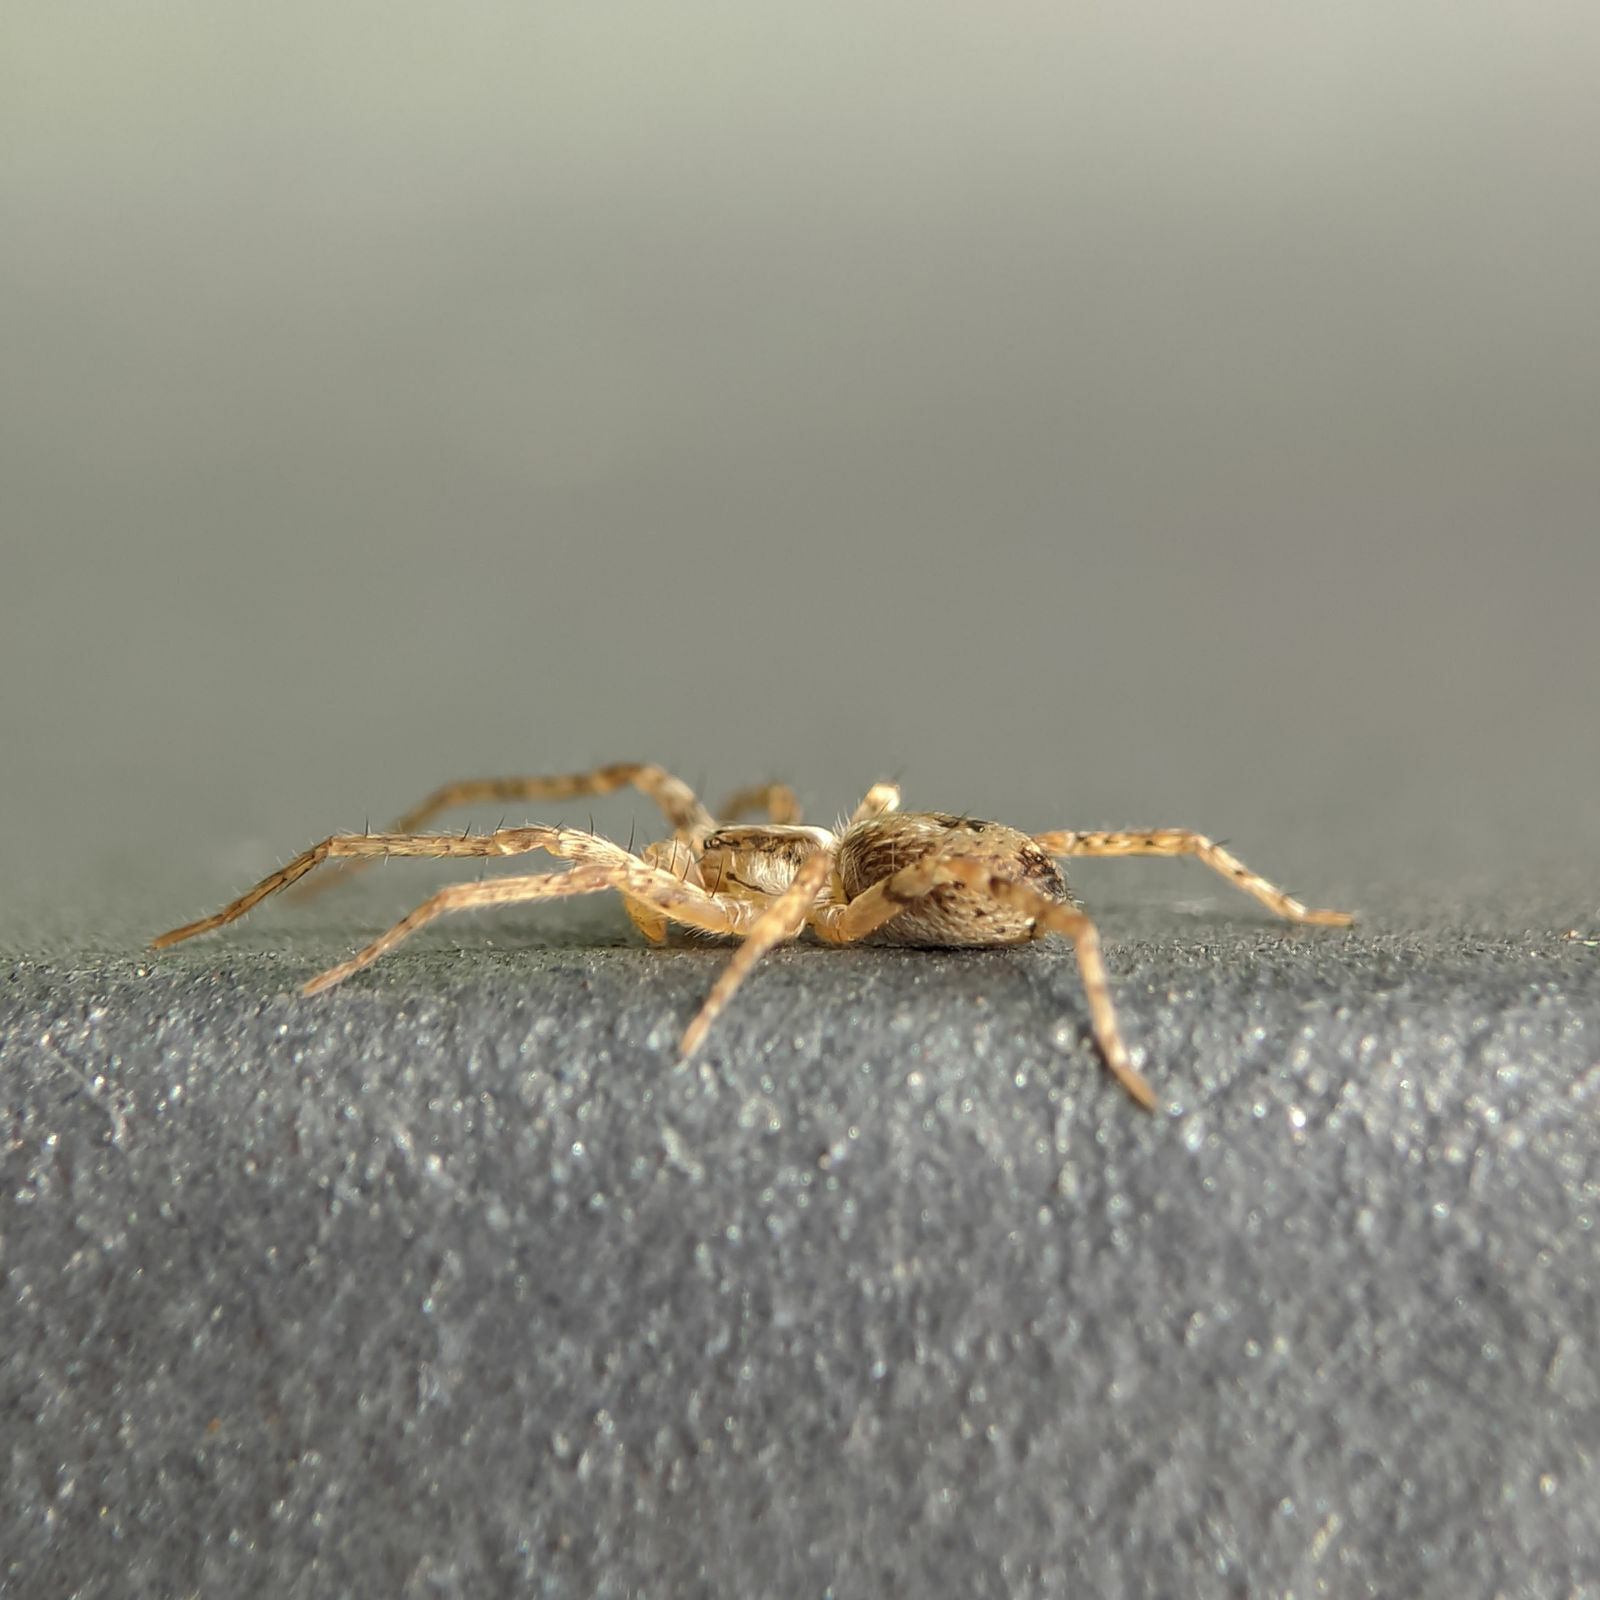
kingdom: Animalia
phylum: Arthropoda
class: Arachnida
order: Araneae
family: Anyphaenidae
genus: Anyphaena
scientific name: Anyphaena accentuata
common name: Buzzing spider
